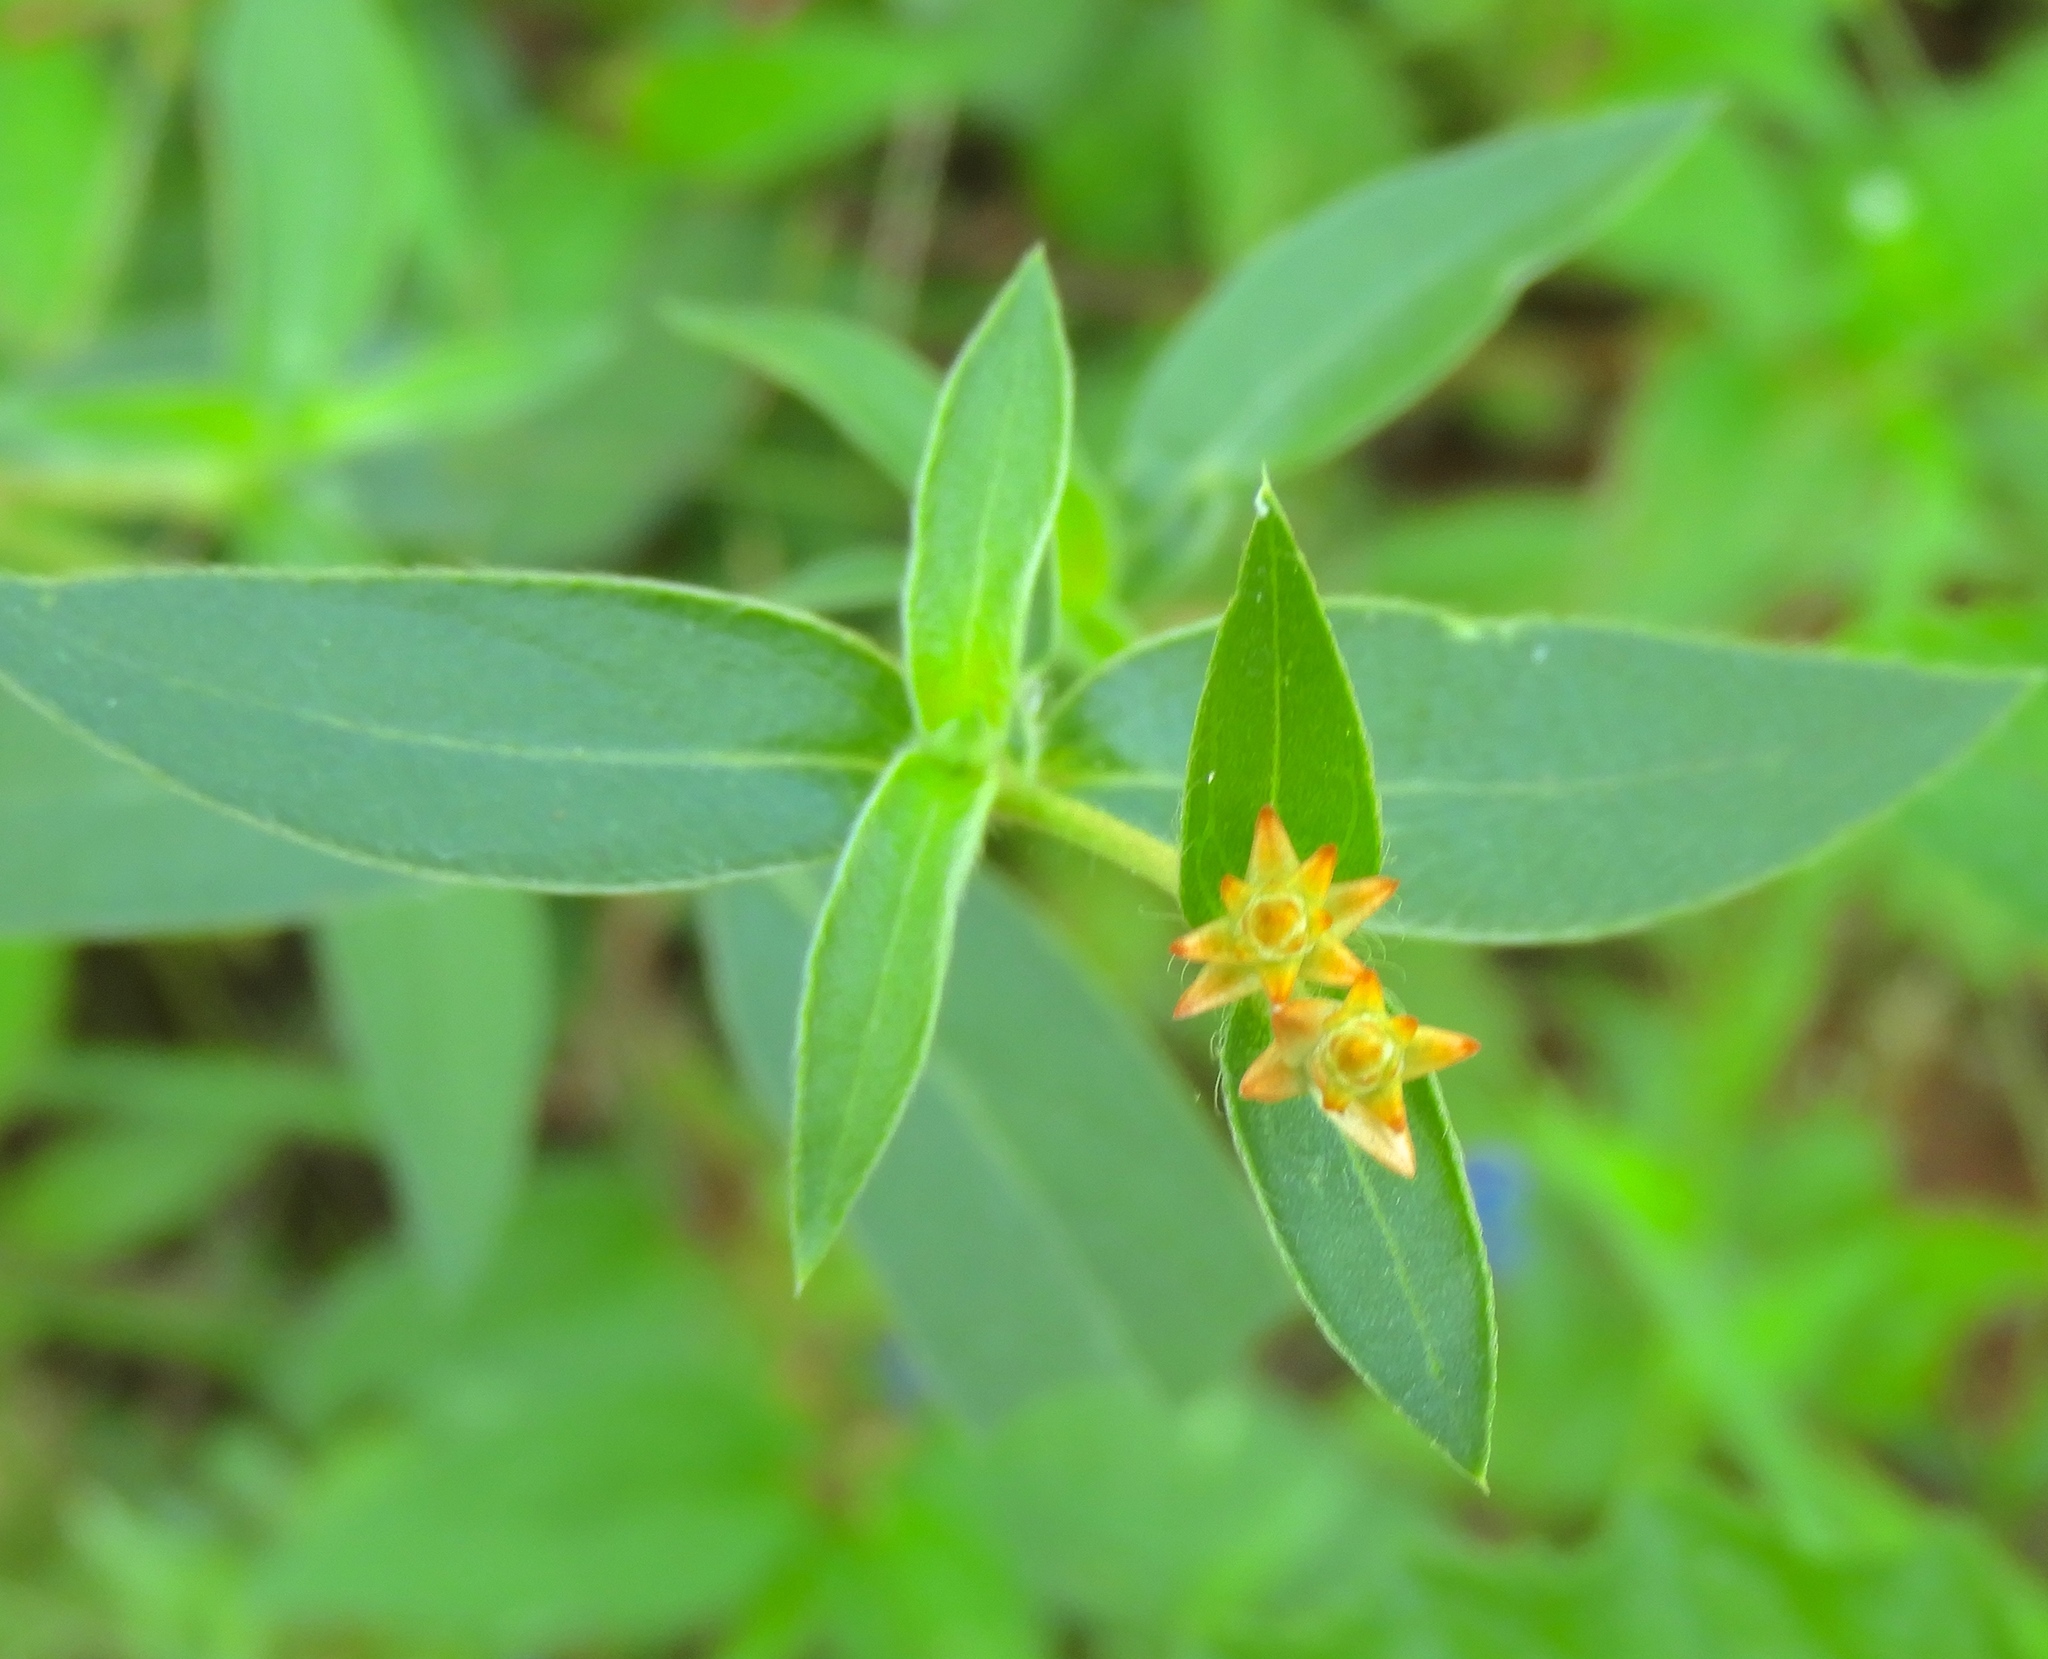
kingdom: Plantae
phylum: Tracheophyta
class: Magnoliopsida
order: Caryophyllales
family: Amaranthaceae
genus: Gomphrena
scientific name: Gomphrena serrata
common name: Arrasa con todo
